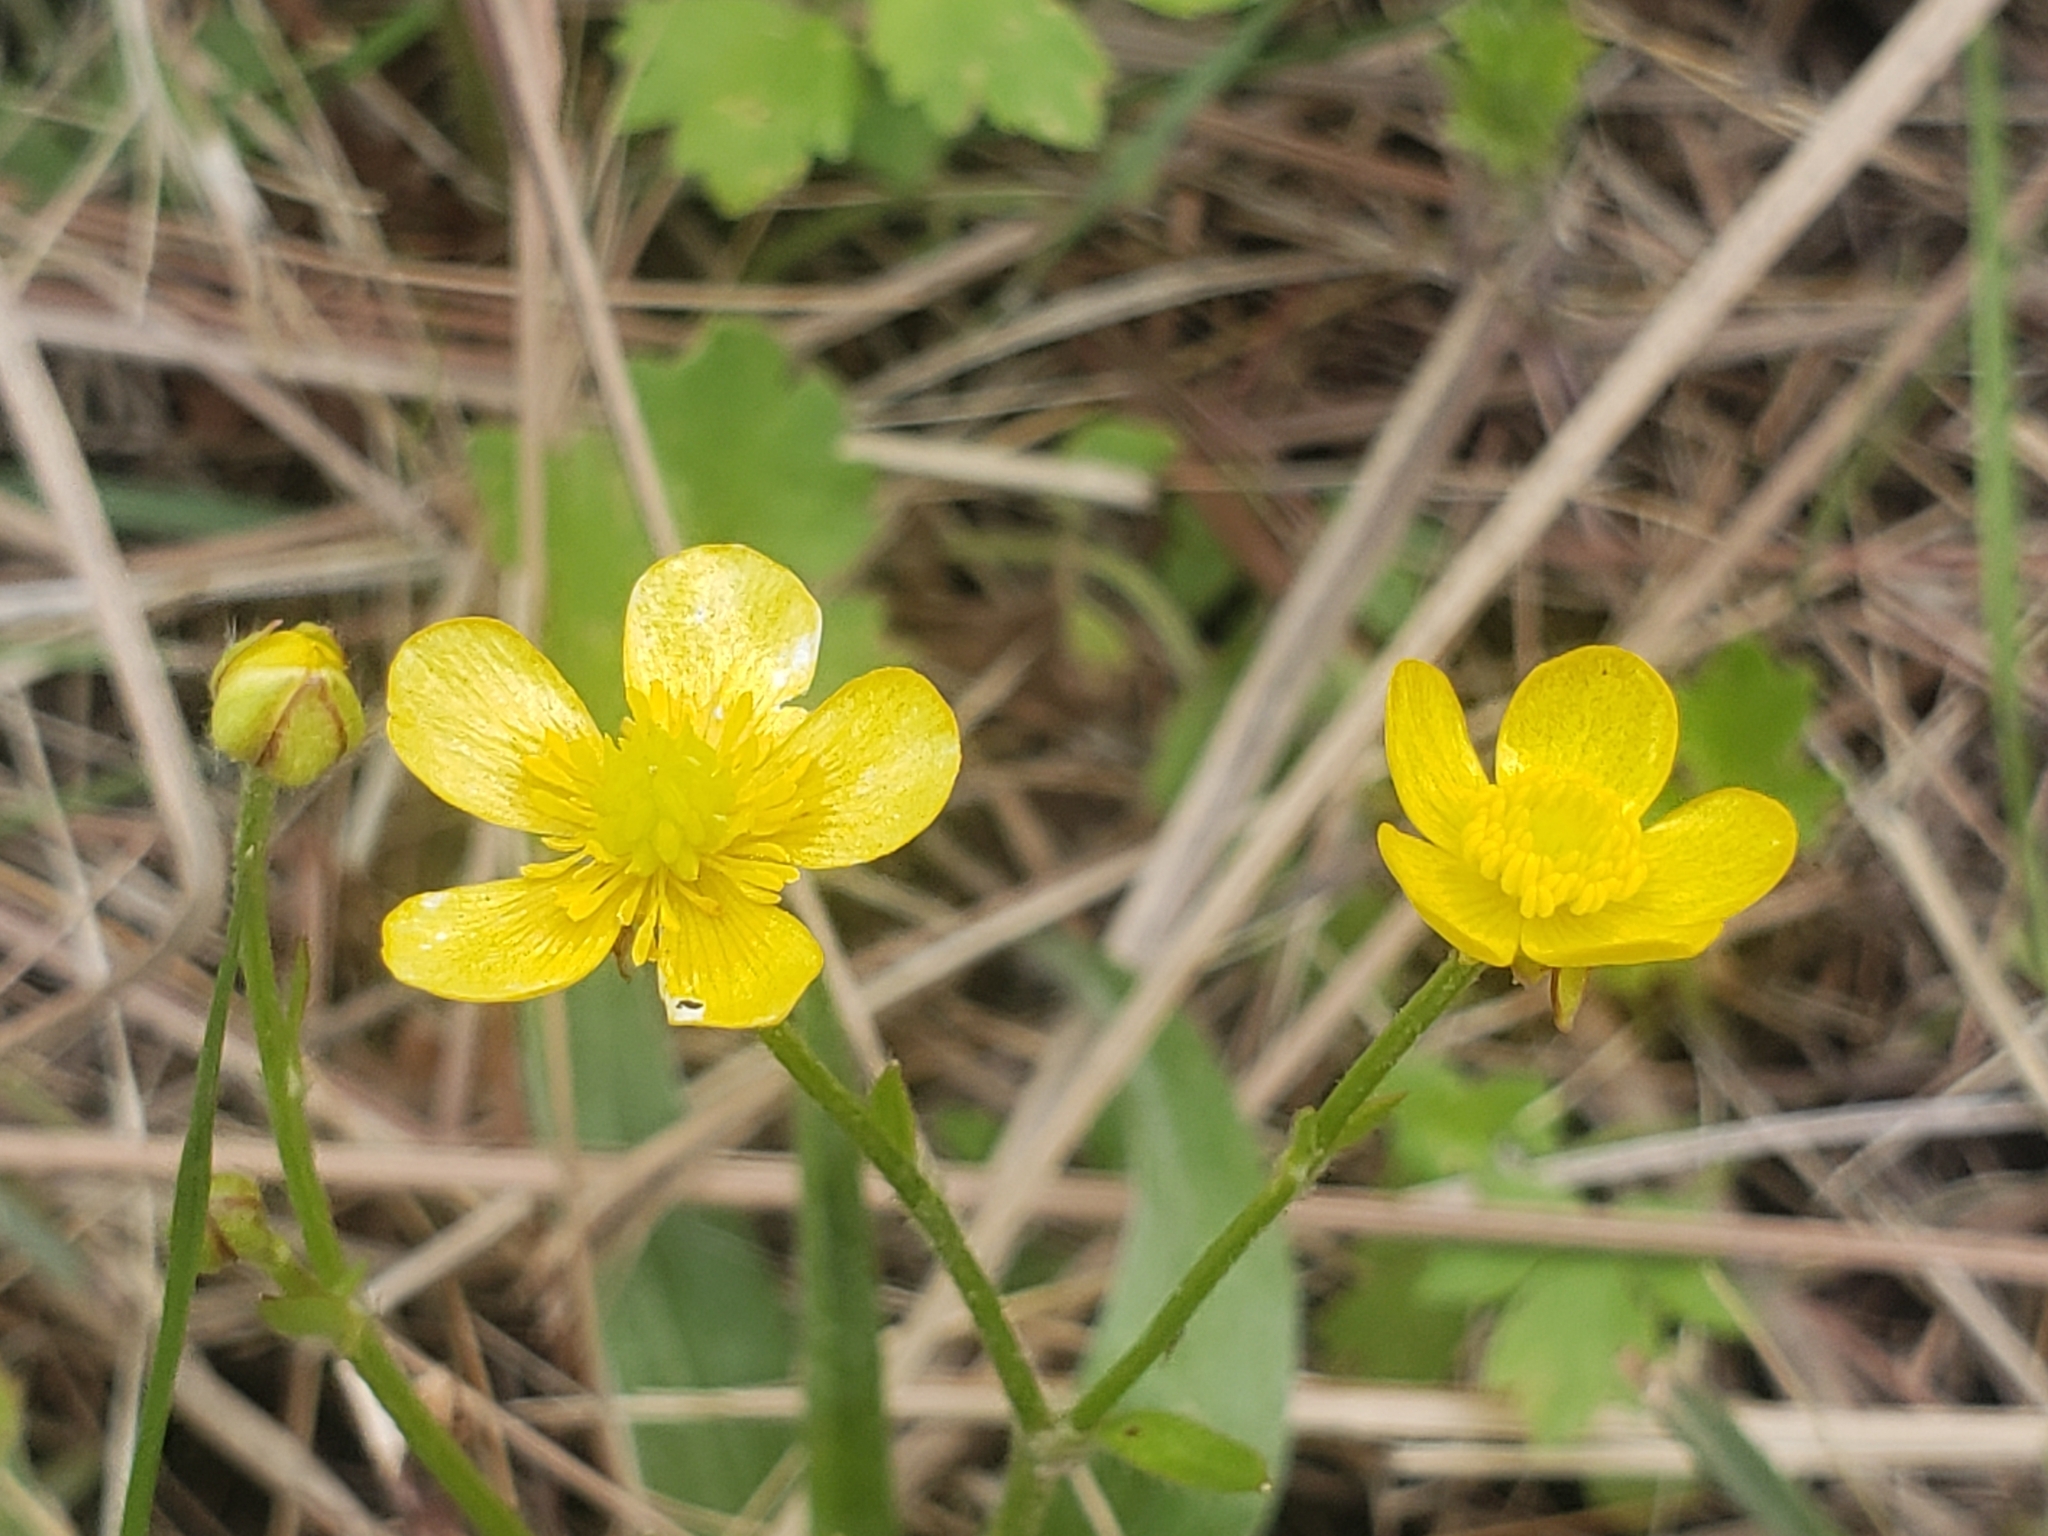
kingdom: Plantae
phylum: Tracheophyta
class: Magnoliopsida
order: Ranunculales
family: Ranunculaceae
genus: Ranunculus
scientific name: Ranunculus multifidus
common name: Wild buttercup
